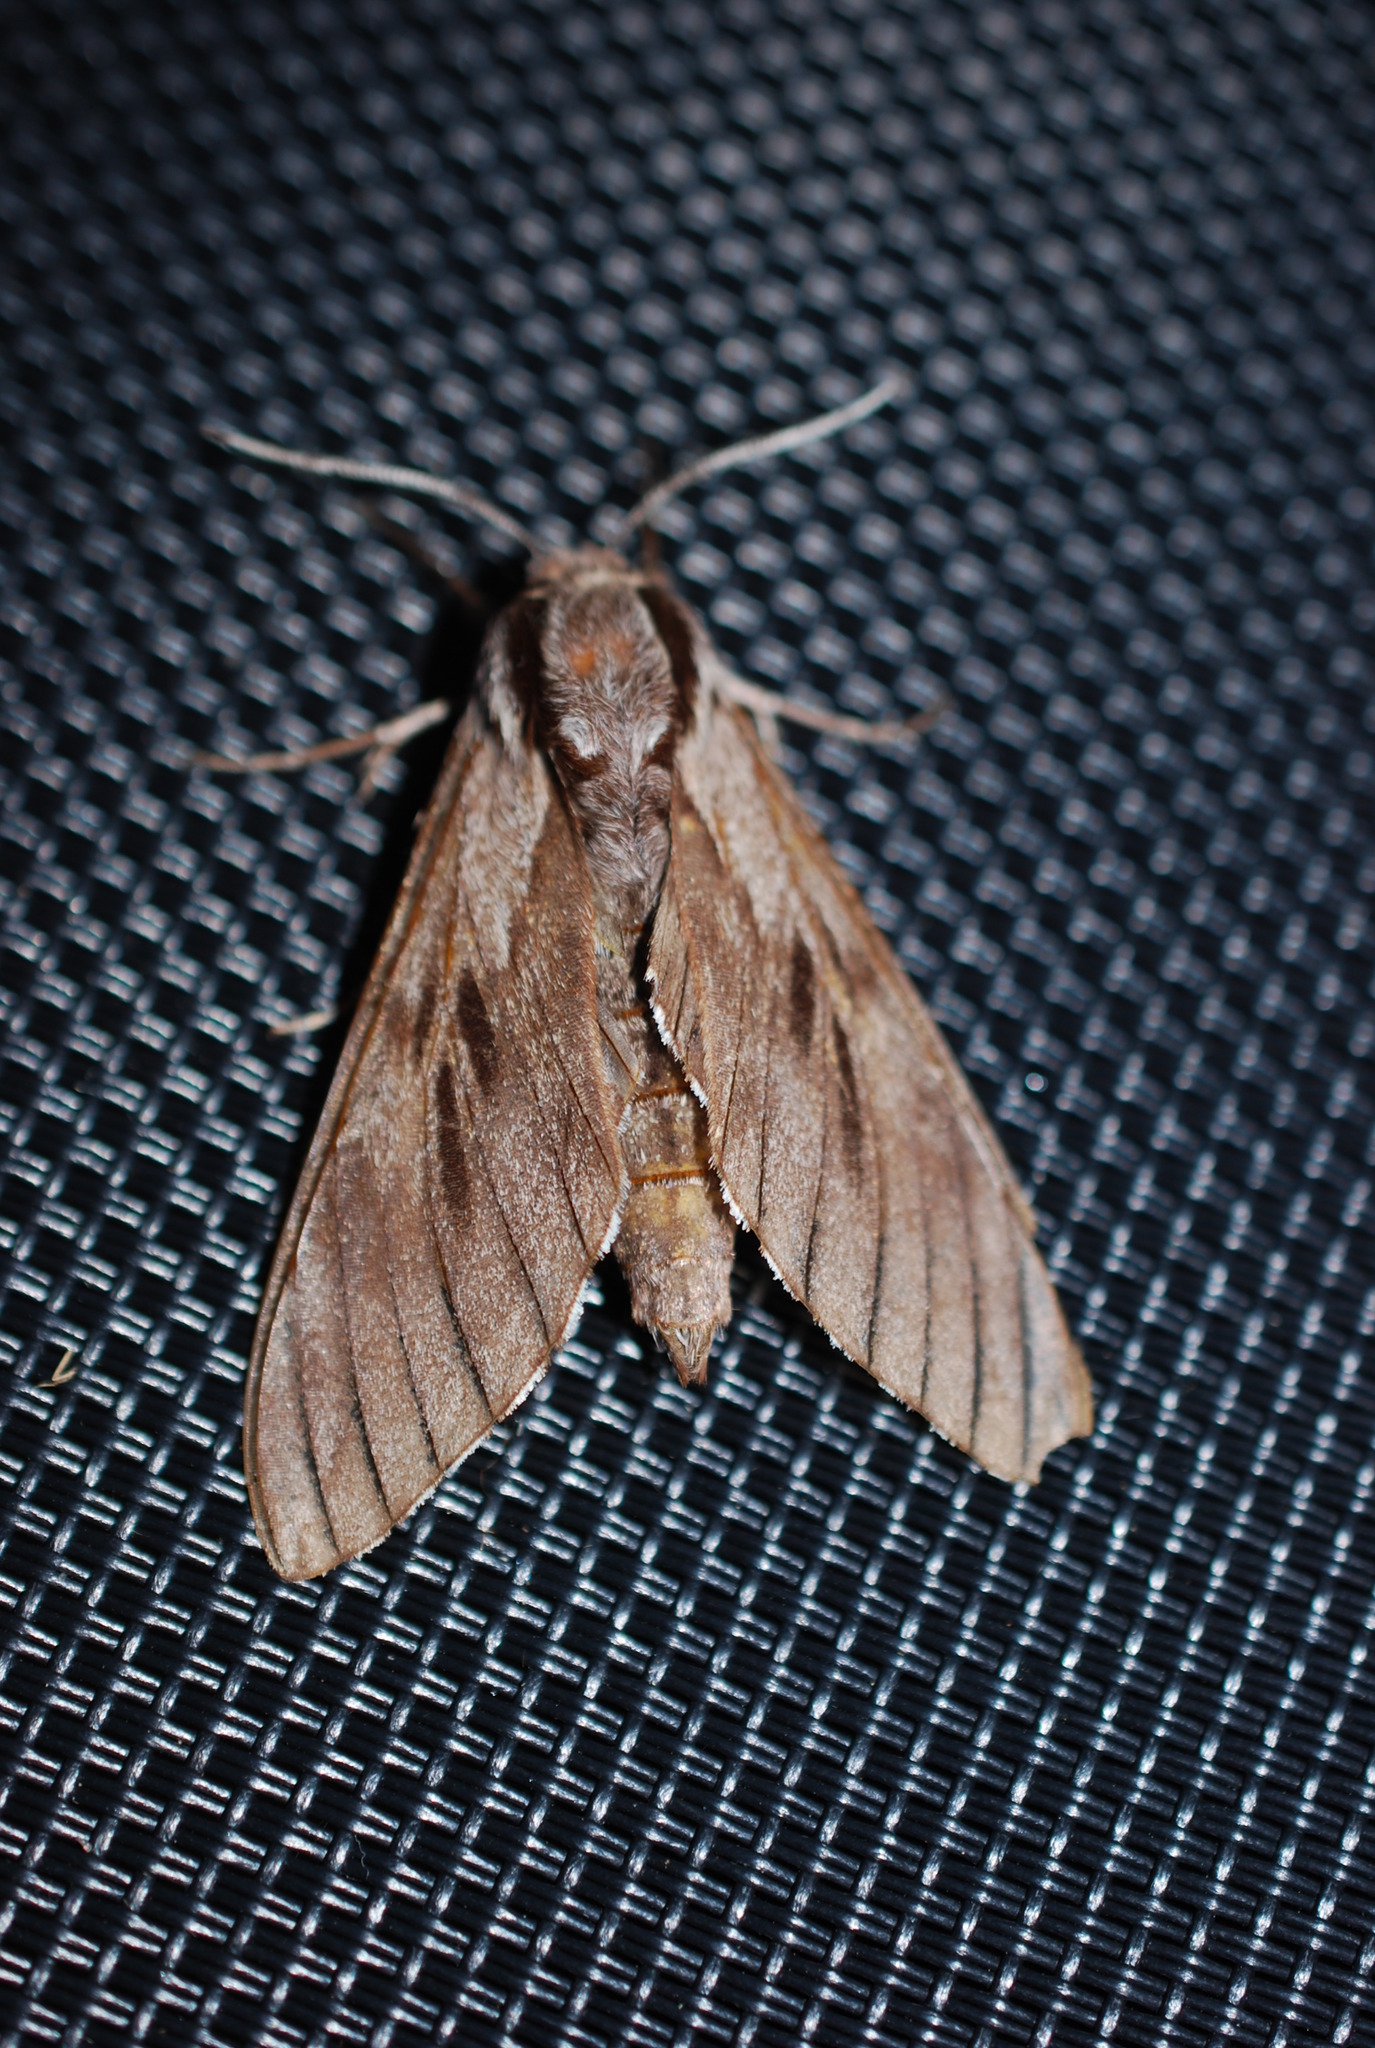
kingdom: Animalia
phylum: Arthropoda
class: Insecta
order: Lepidoptera
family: Sphingidae
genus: Sphinx
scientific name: Sphinx pinastri
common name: Pine hawk-moth
